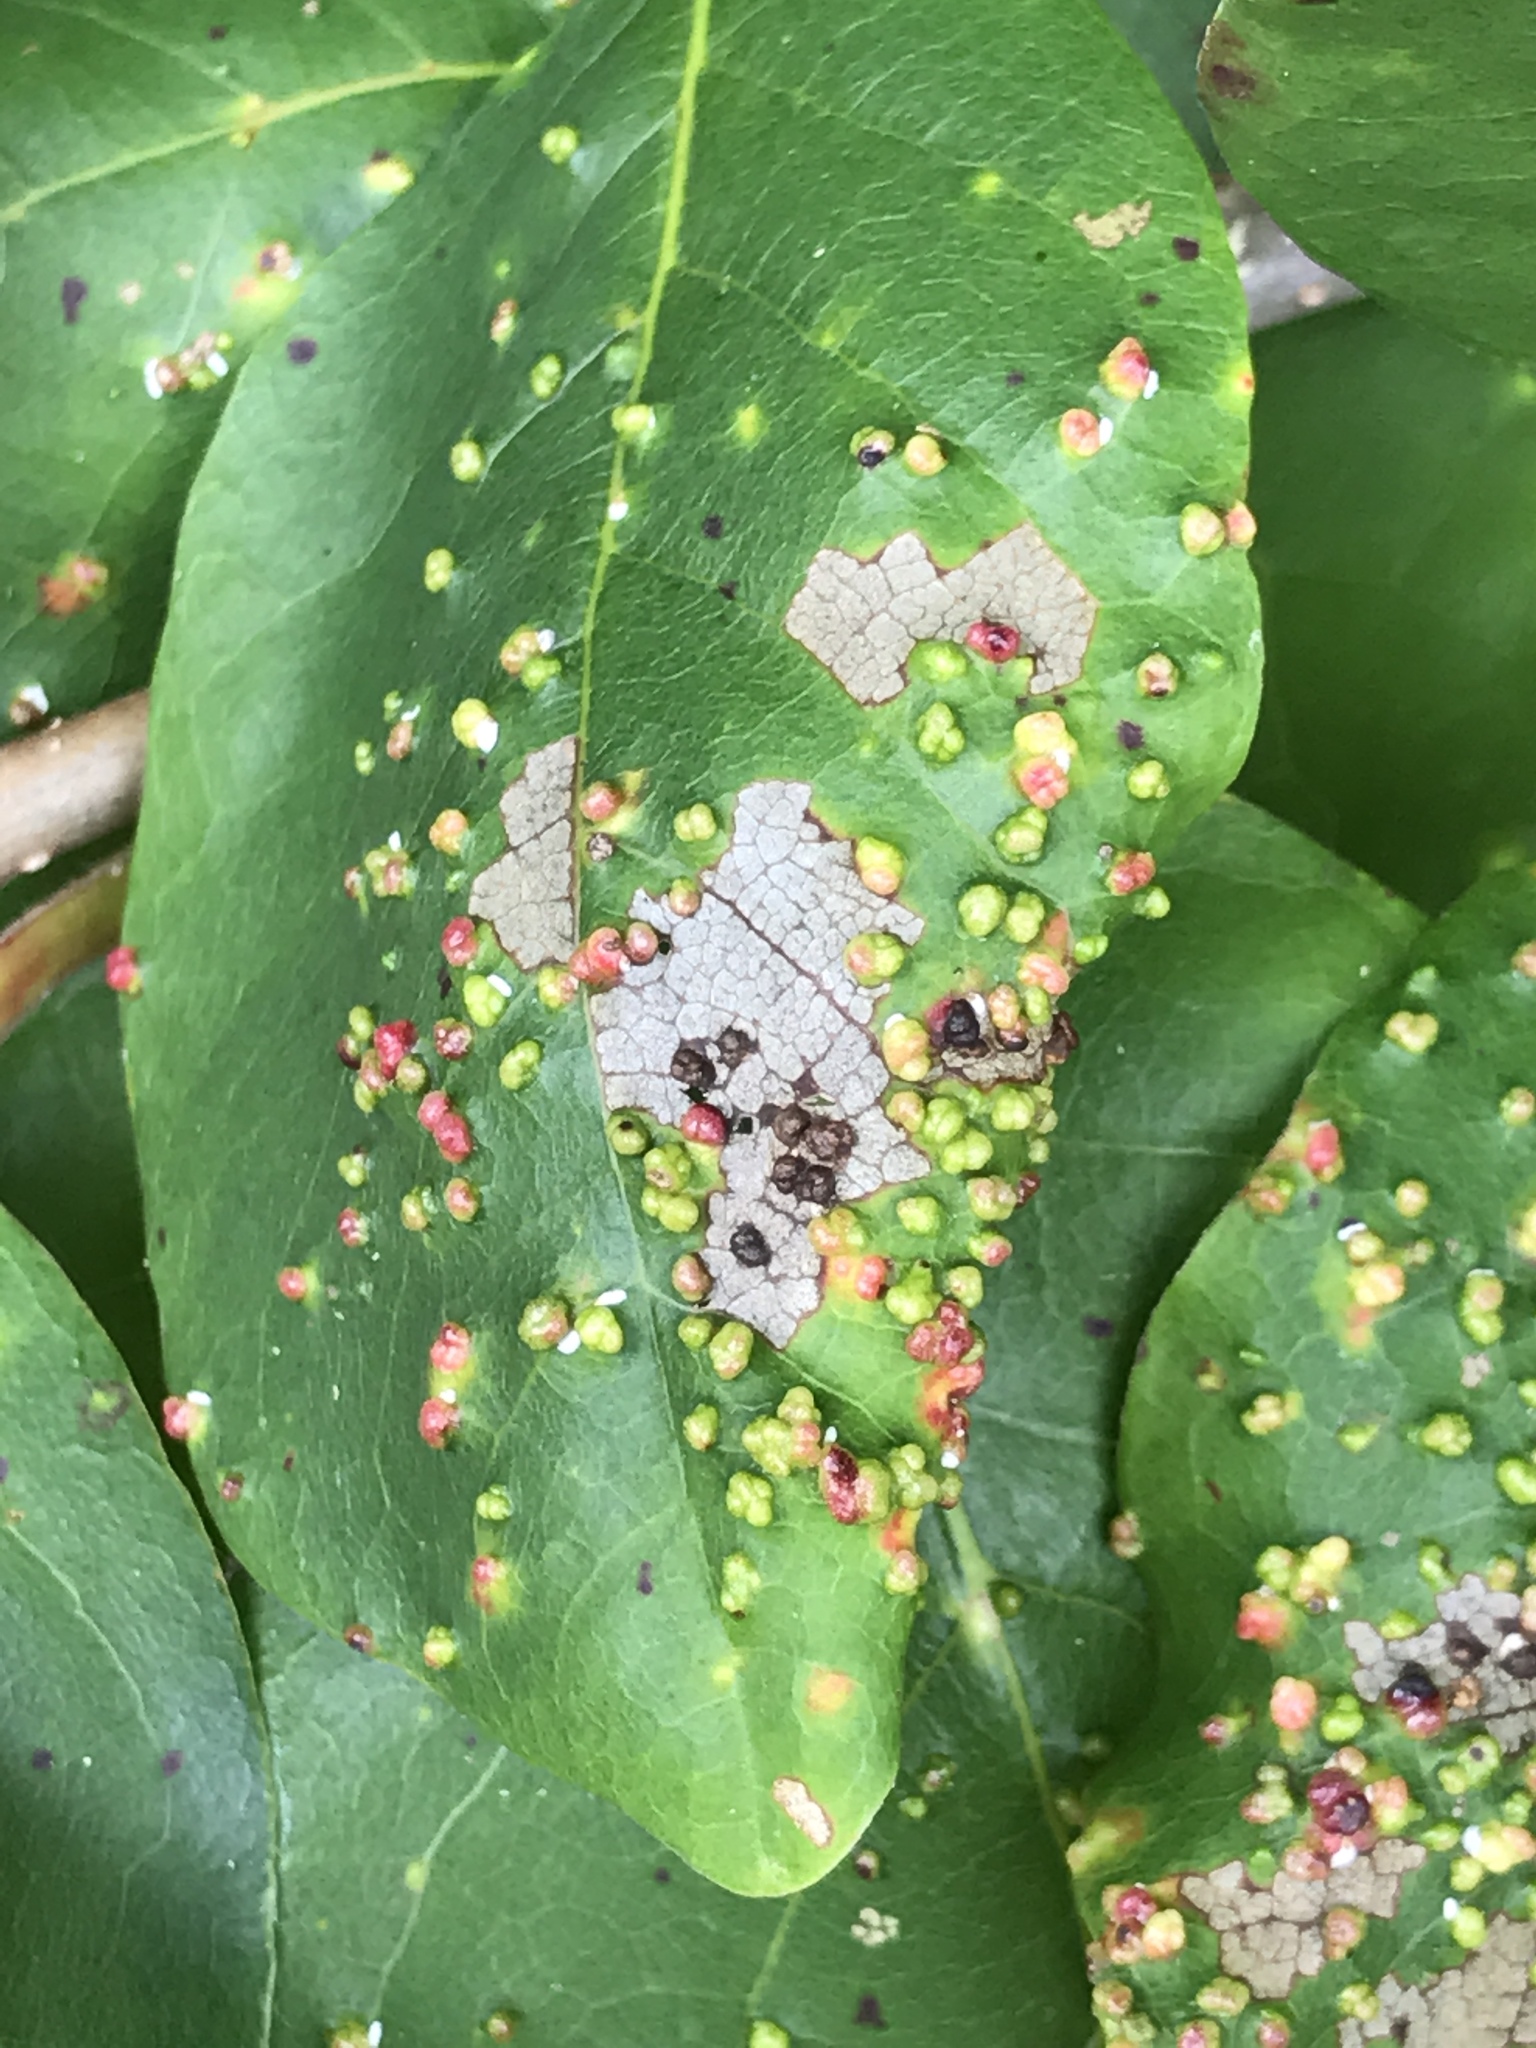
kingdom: Animalia
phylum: Arthropoda
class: Arachnida
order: Trombidiformes
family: Eriophyidae
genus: Aceria
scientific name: Aceria
